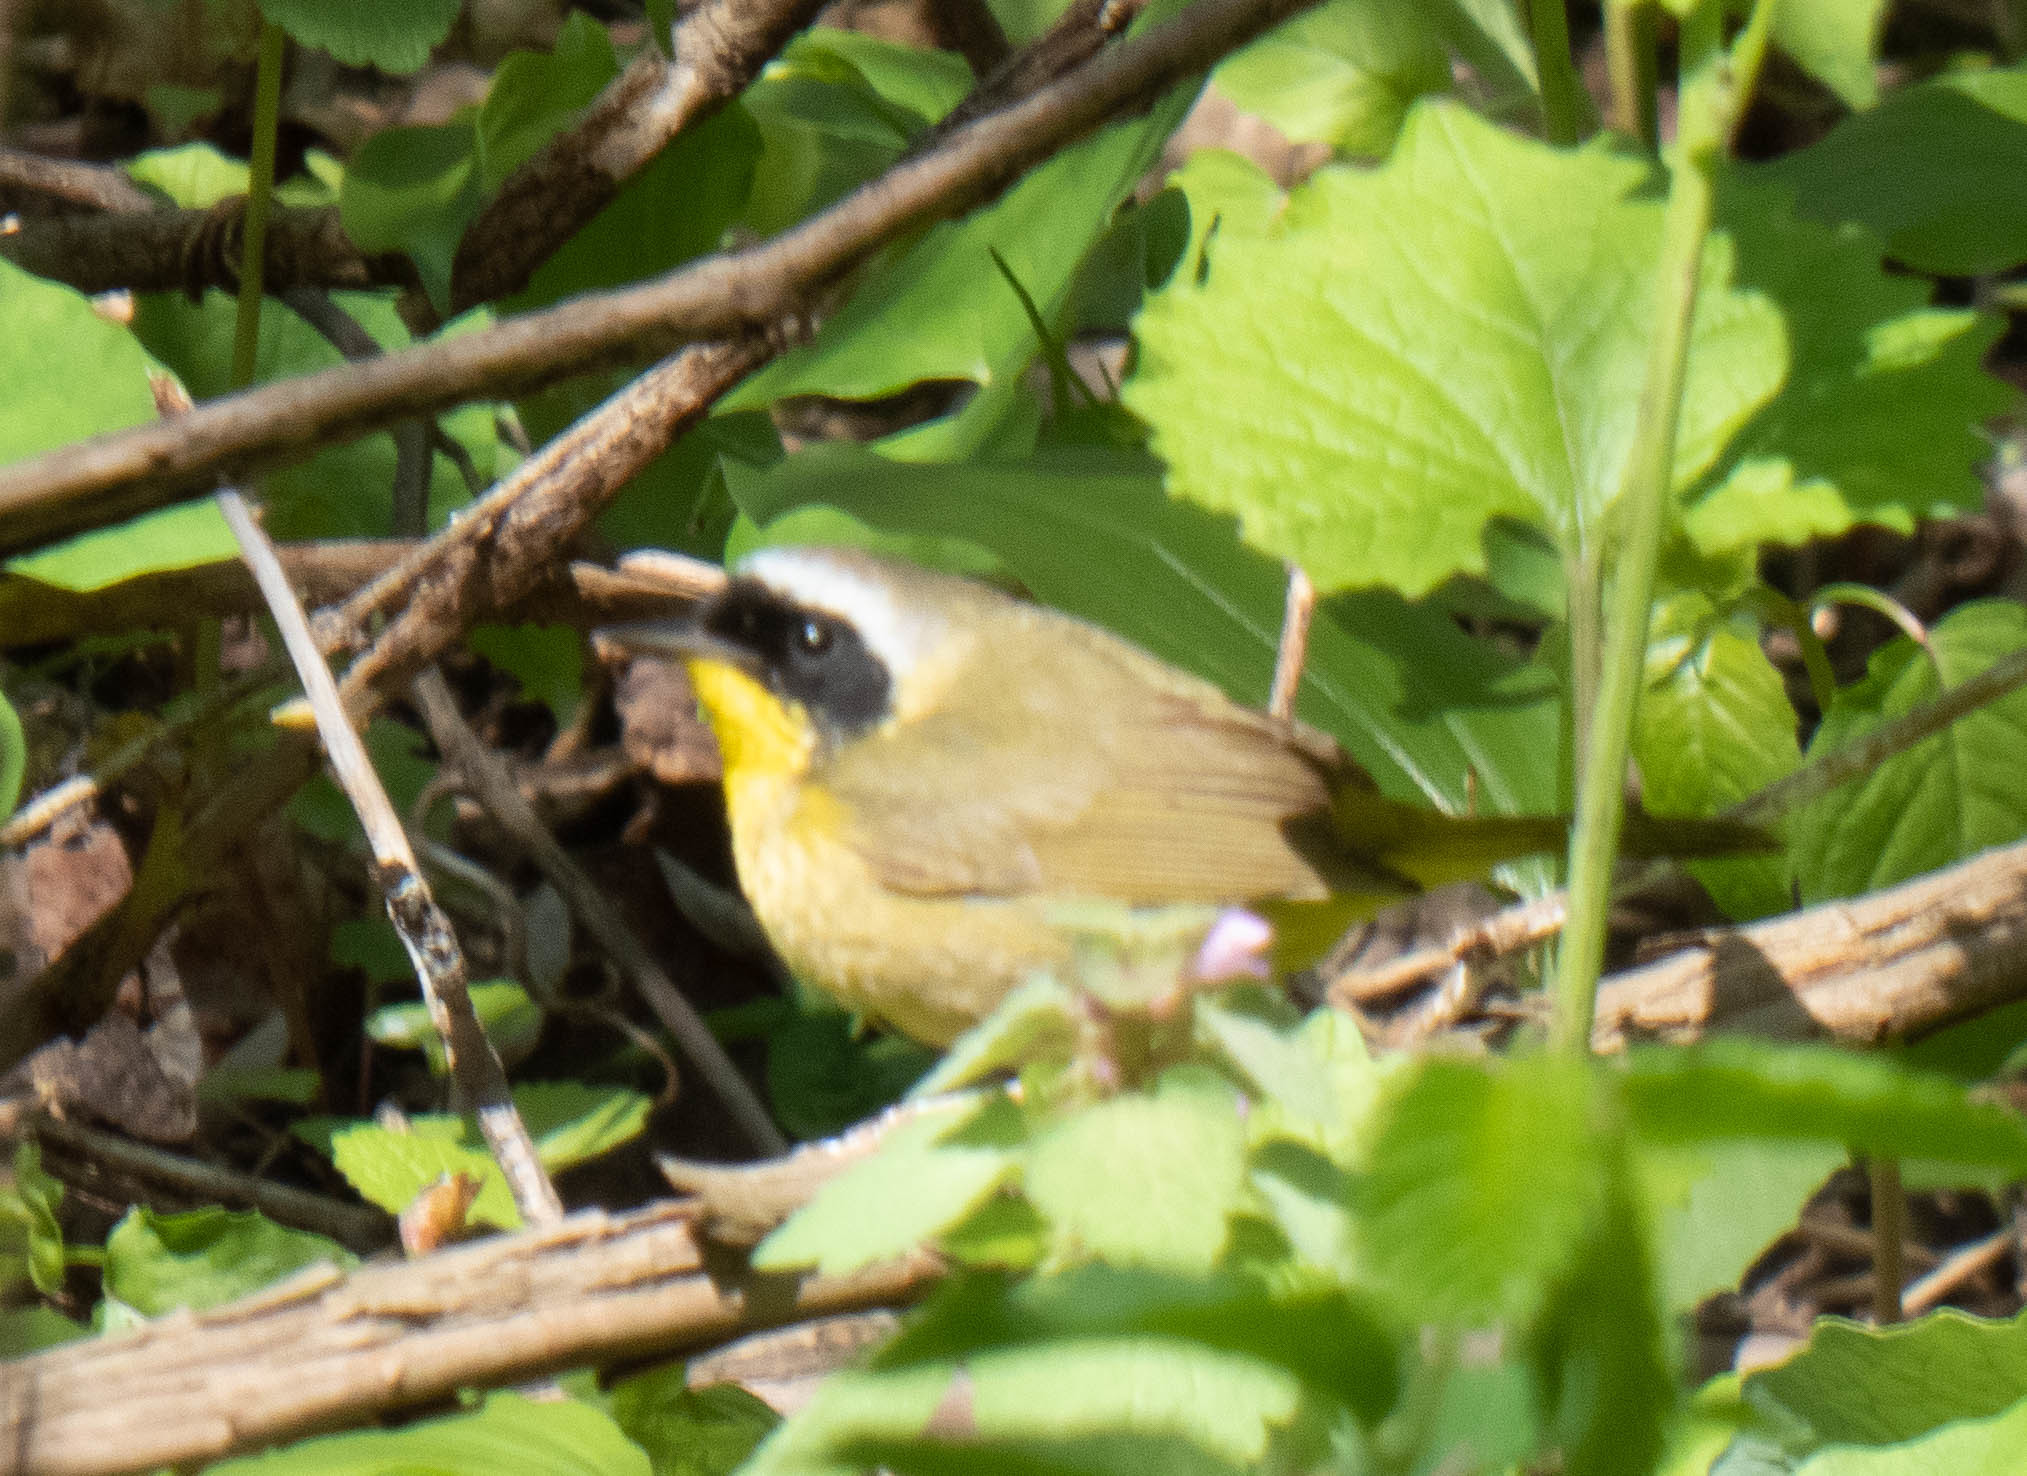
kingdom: Animalia
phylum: Chordata
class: Aves
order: Passeriformes
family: Parulidae
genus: Geothlypis
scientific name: Geothlypis trichas
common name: Common yellowthroat
